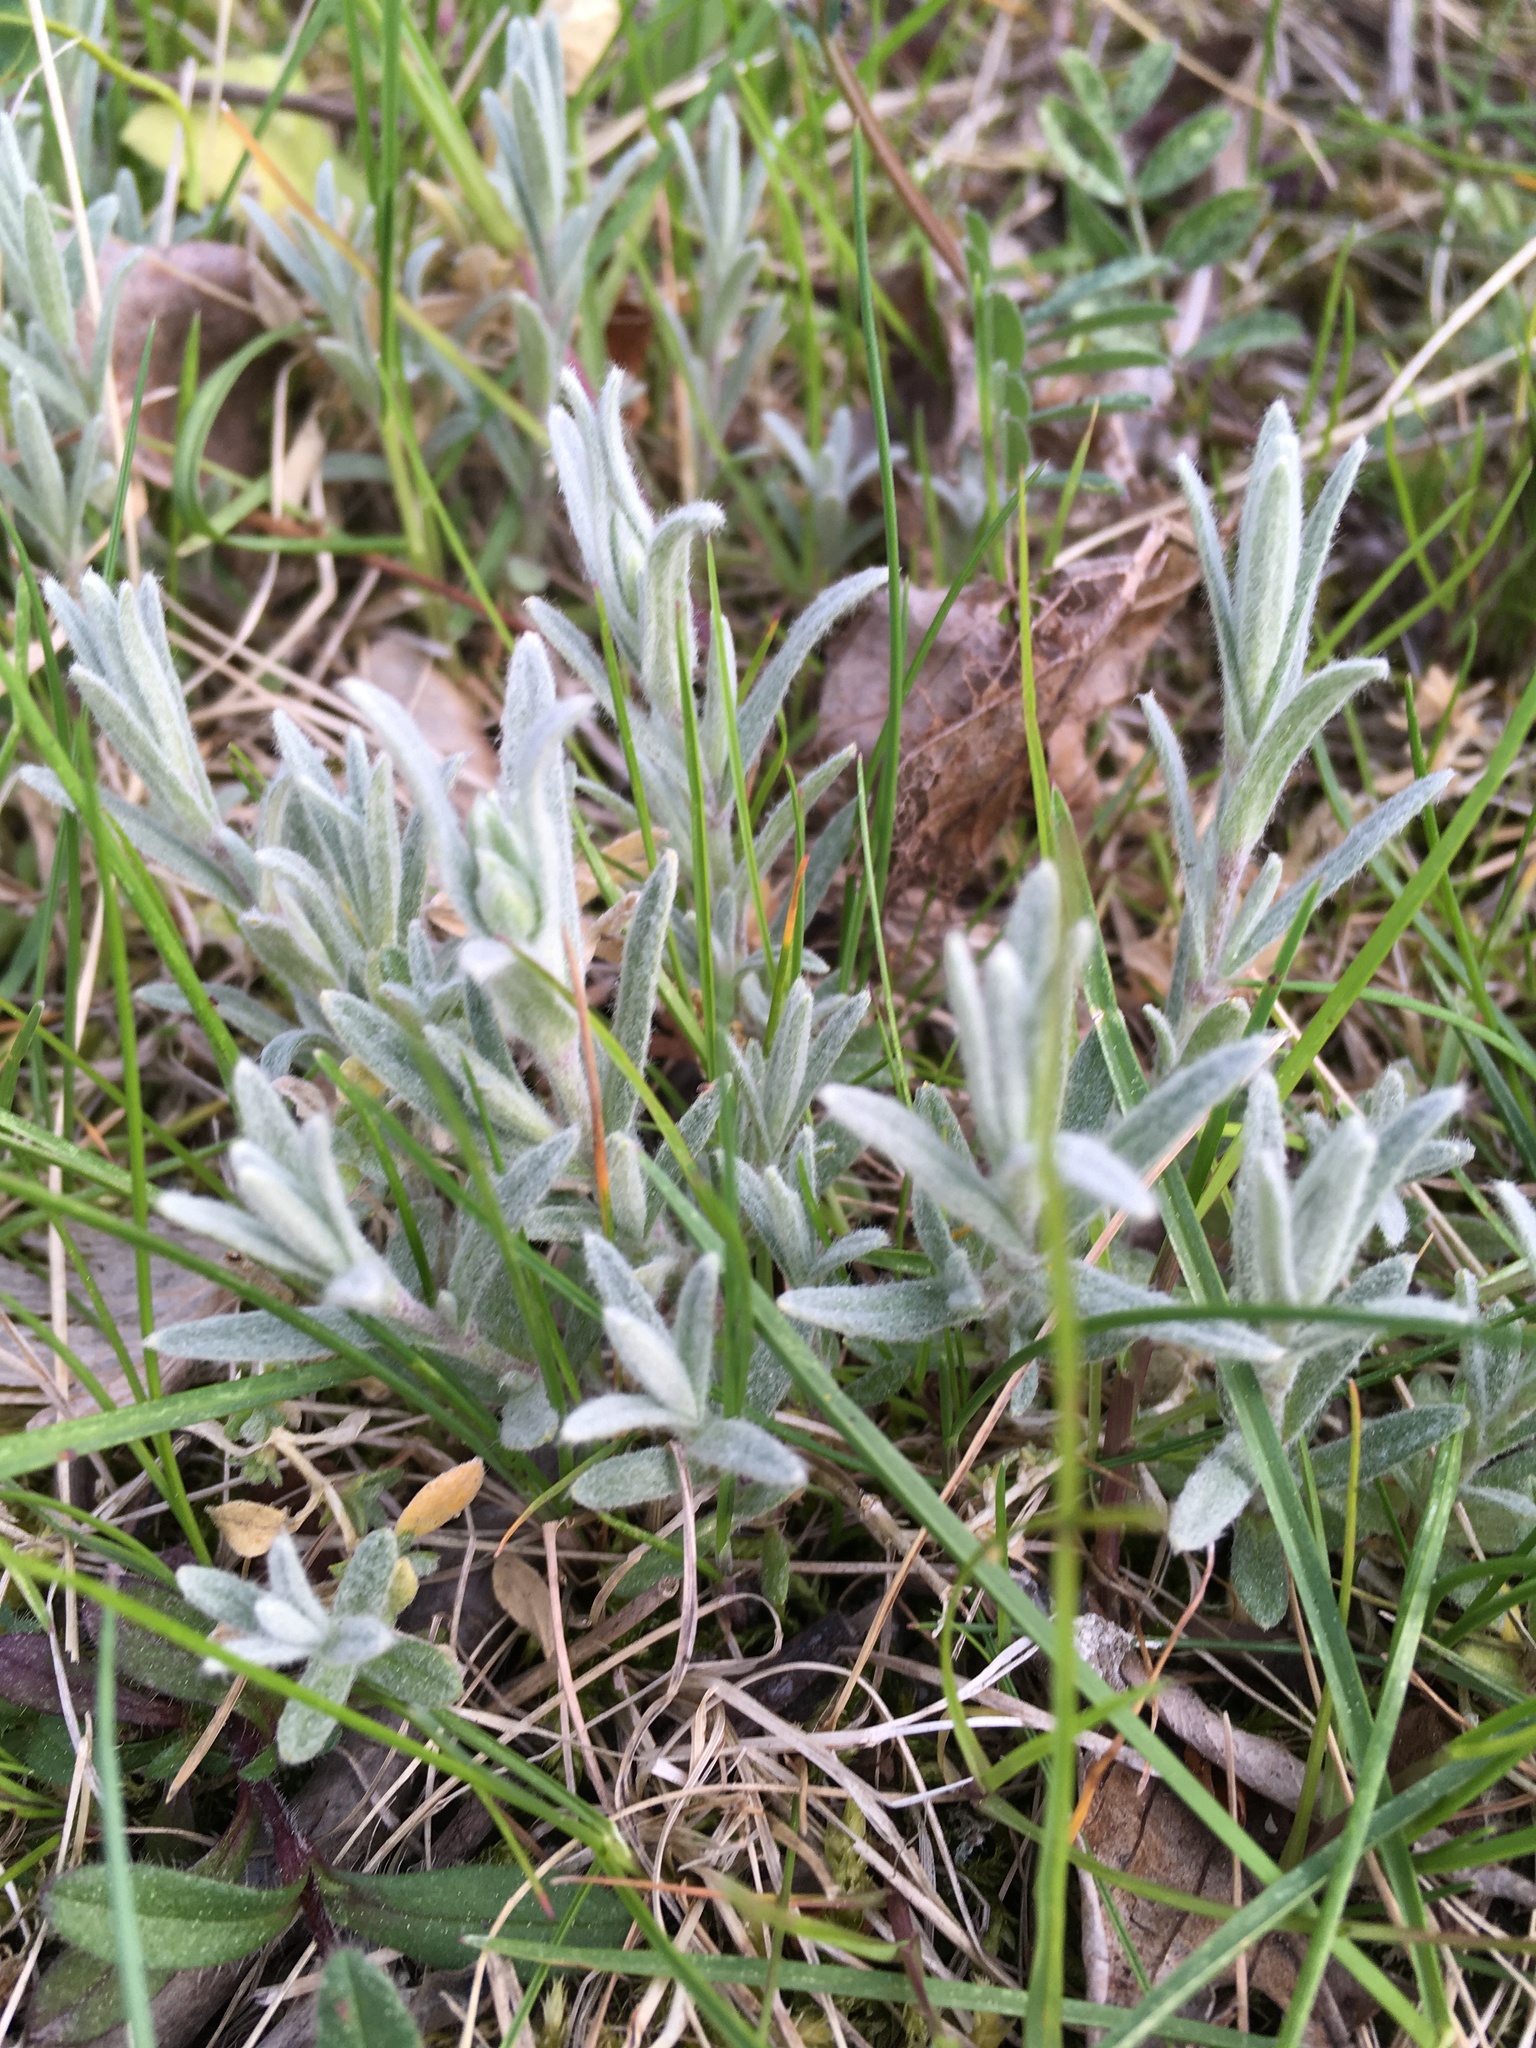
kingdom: Plantae
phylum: Tracheophyta
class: Magnoliopsida
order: Caryophyllales
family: Caryophyllaceae
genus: Cerastium
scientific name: Cerastium tomentosum
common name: Snow-in-summer
